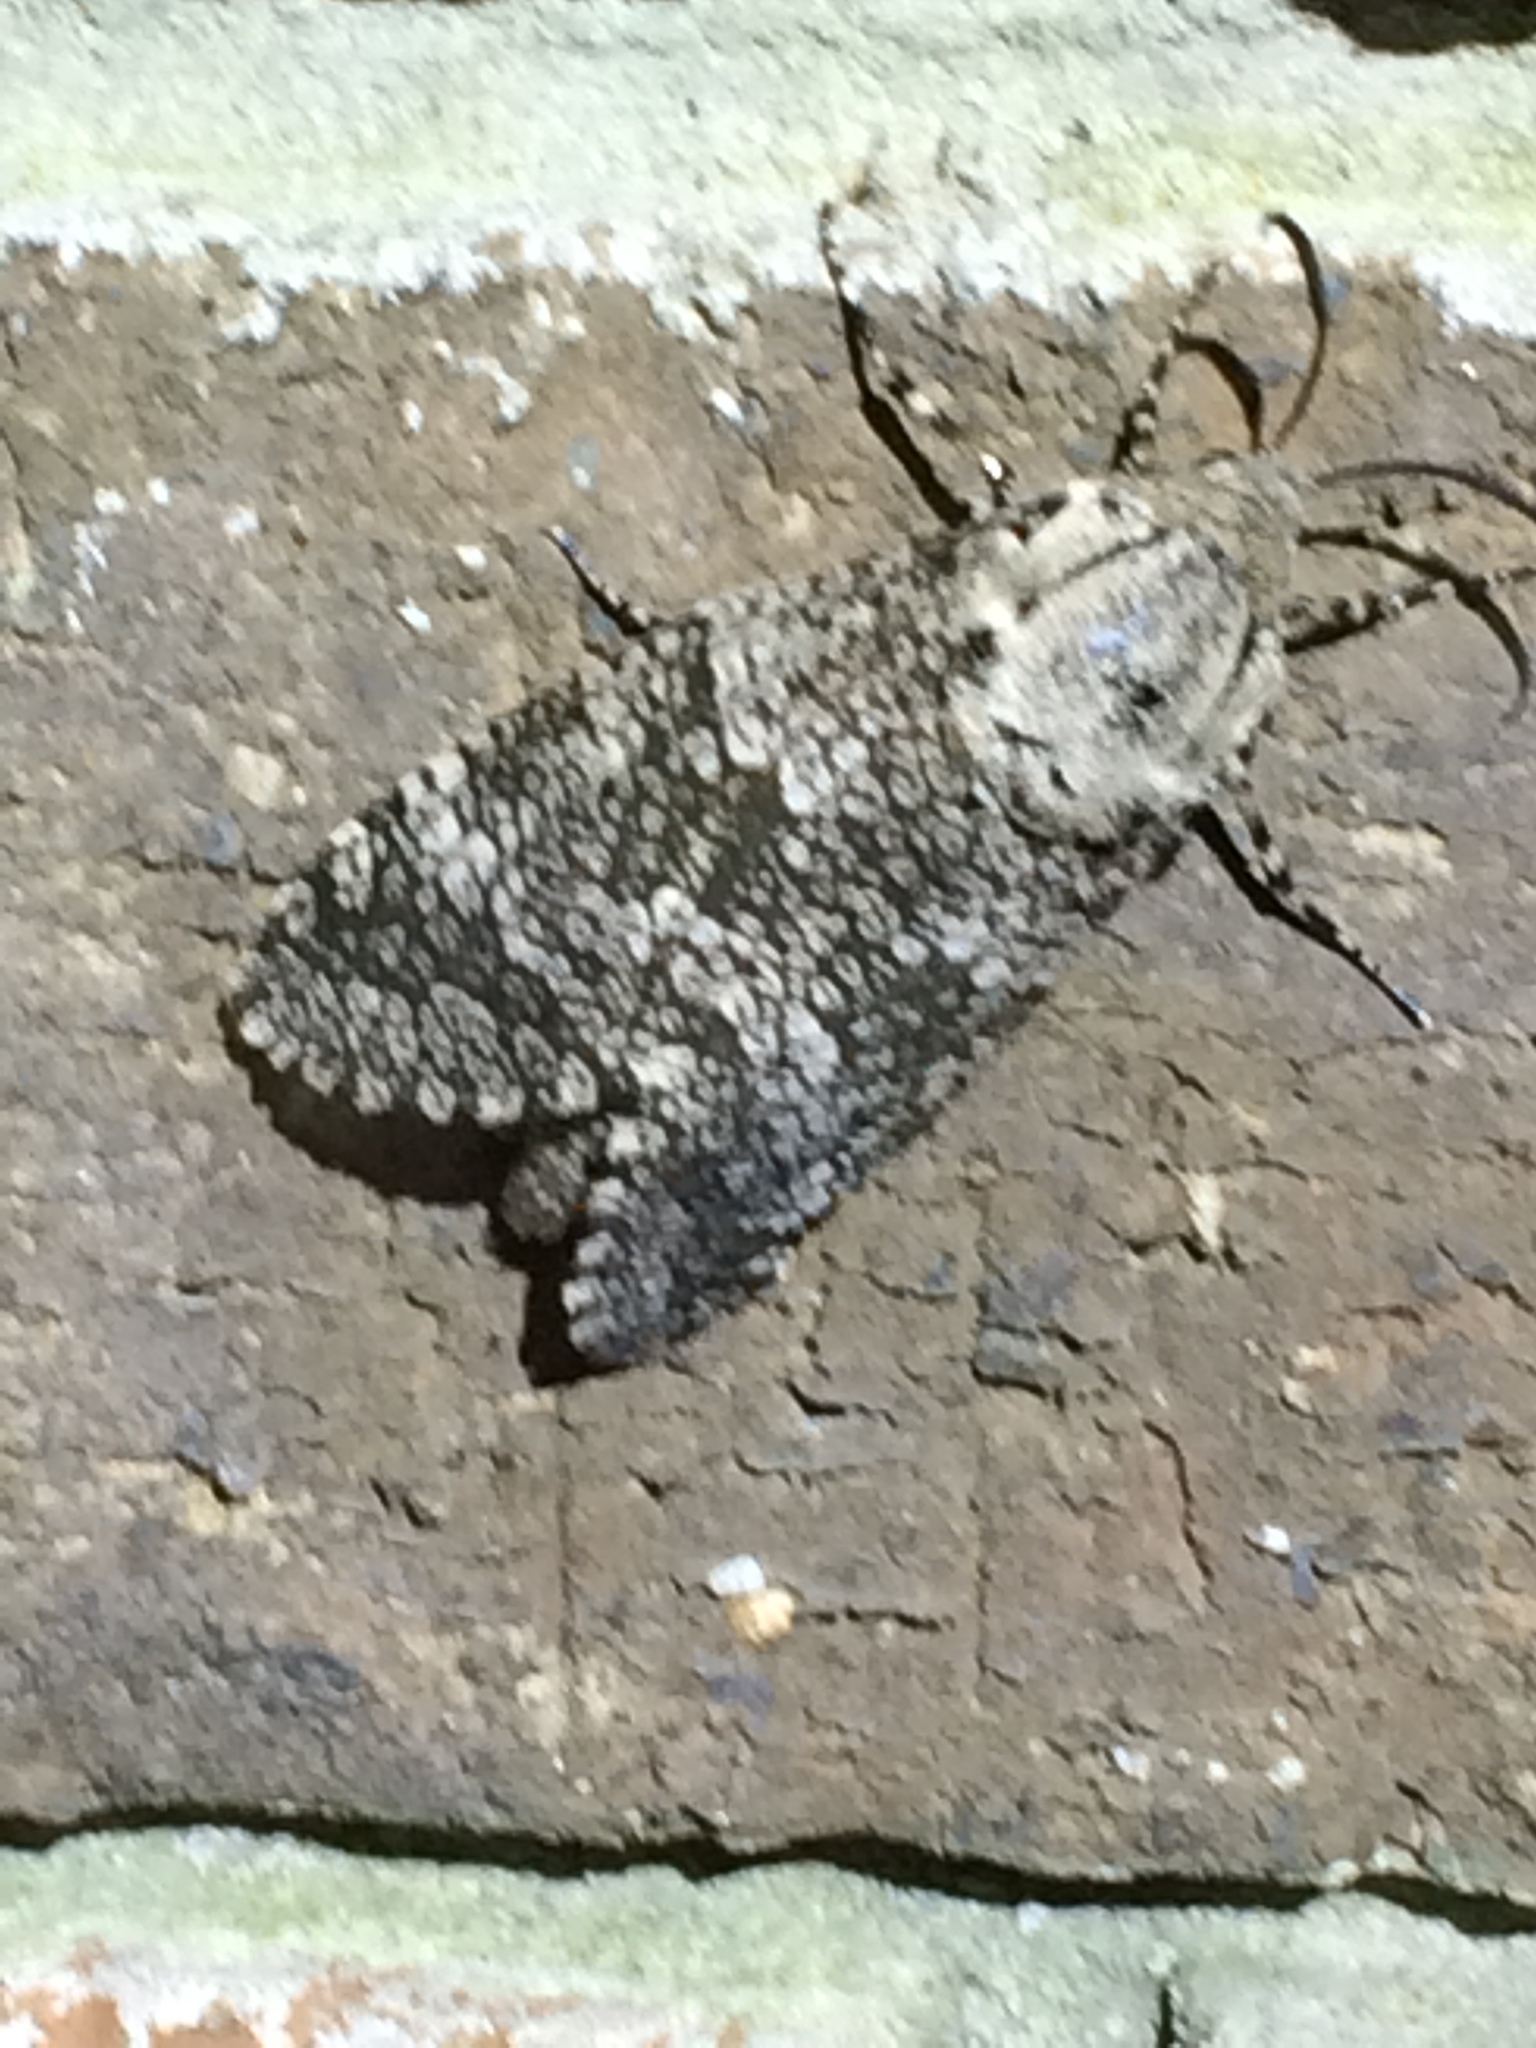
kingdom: Animalia
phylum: Arthropoda
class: Insecta
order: Lepidoptera
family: Cossidae
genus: Prionoxystus
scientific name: Prionoxystus robiniae
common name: Carpenterworm
